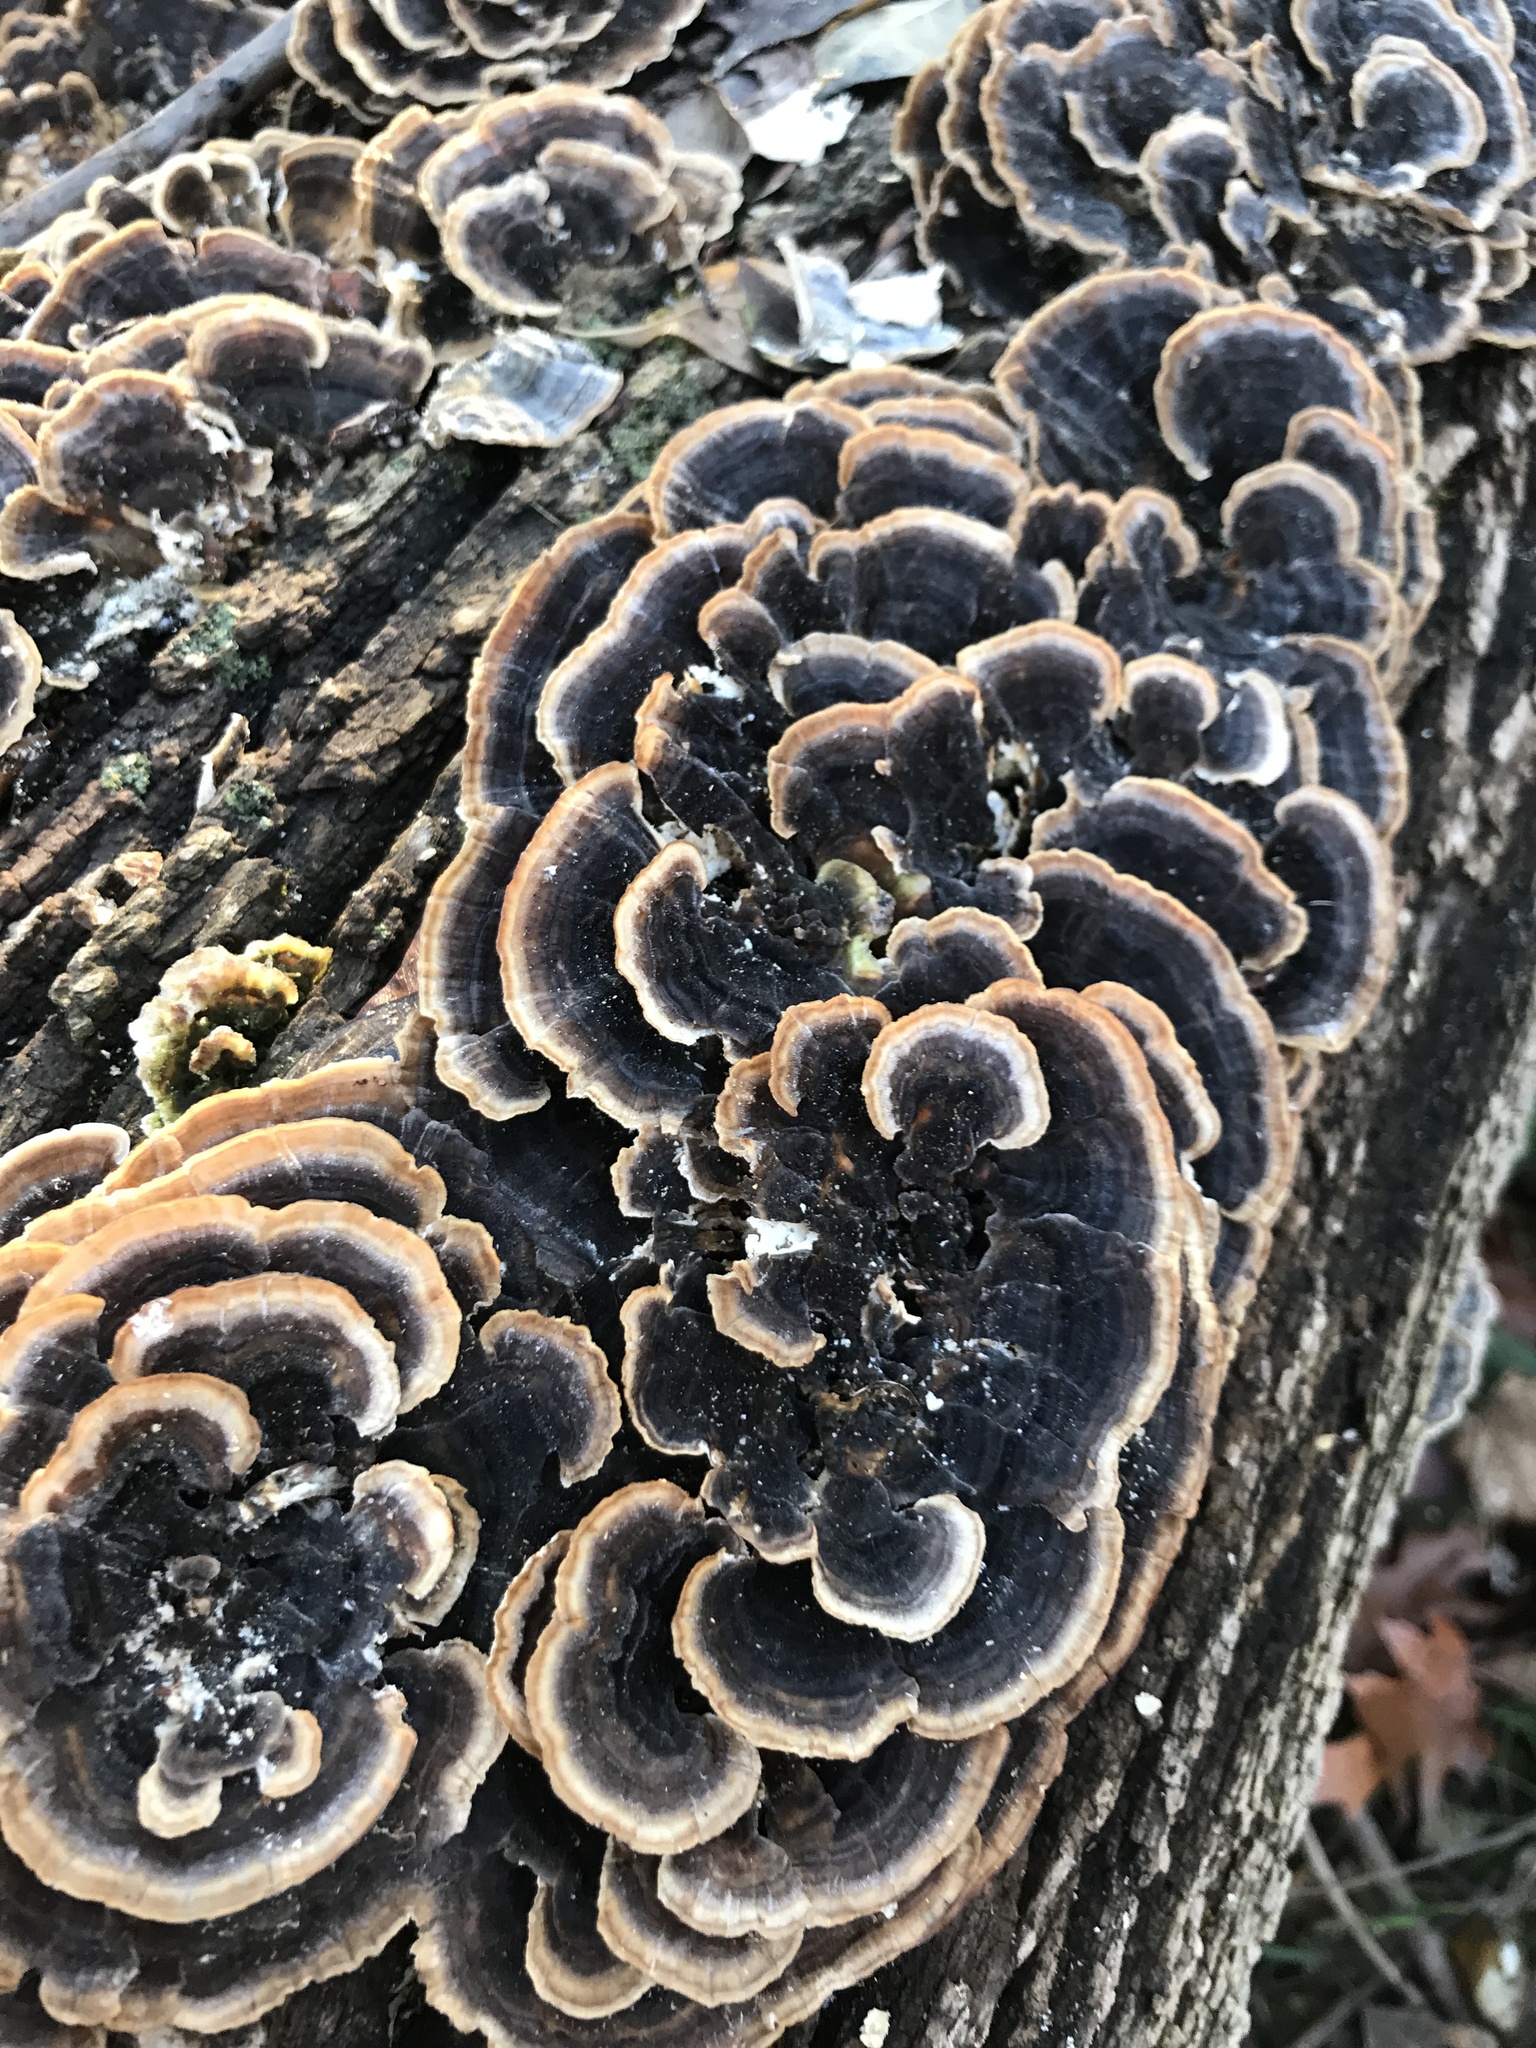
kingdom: Fungi
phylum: Basidiomycota
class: Agaricomycetes
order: Polyporales
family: Polyporaceae
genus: Trametes
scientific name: Trametes versicolor
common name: Turkeytail
